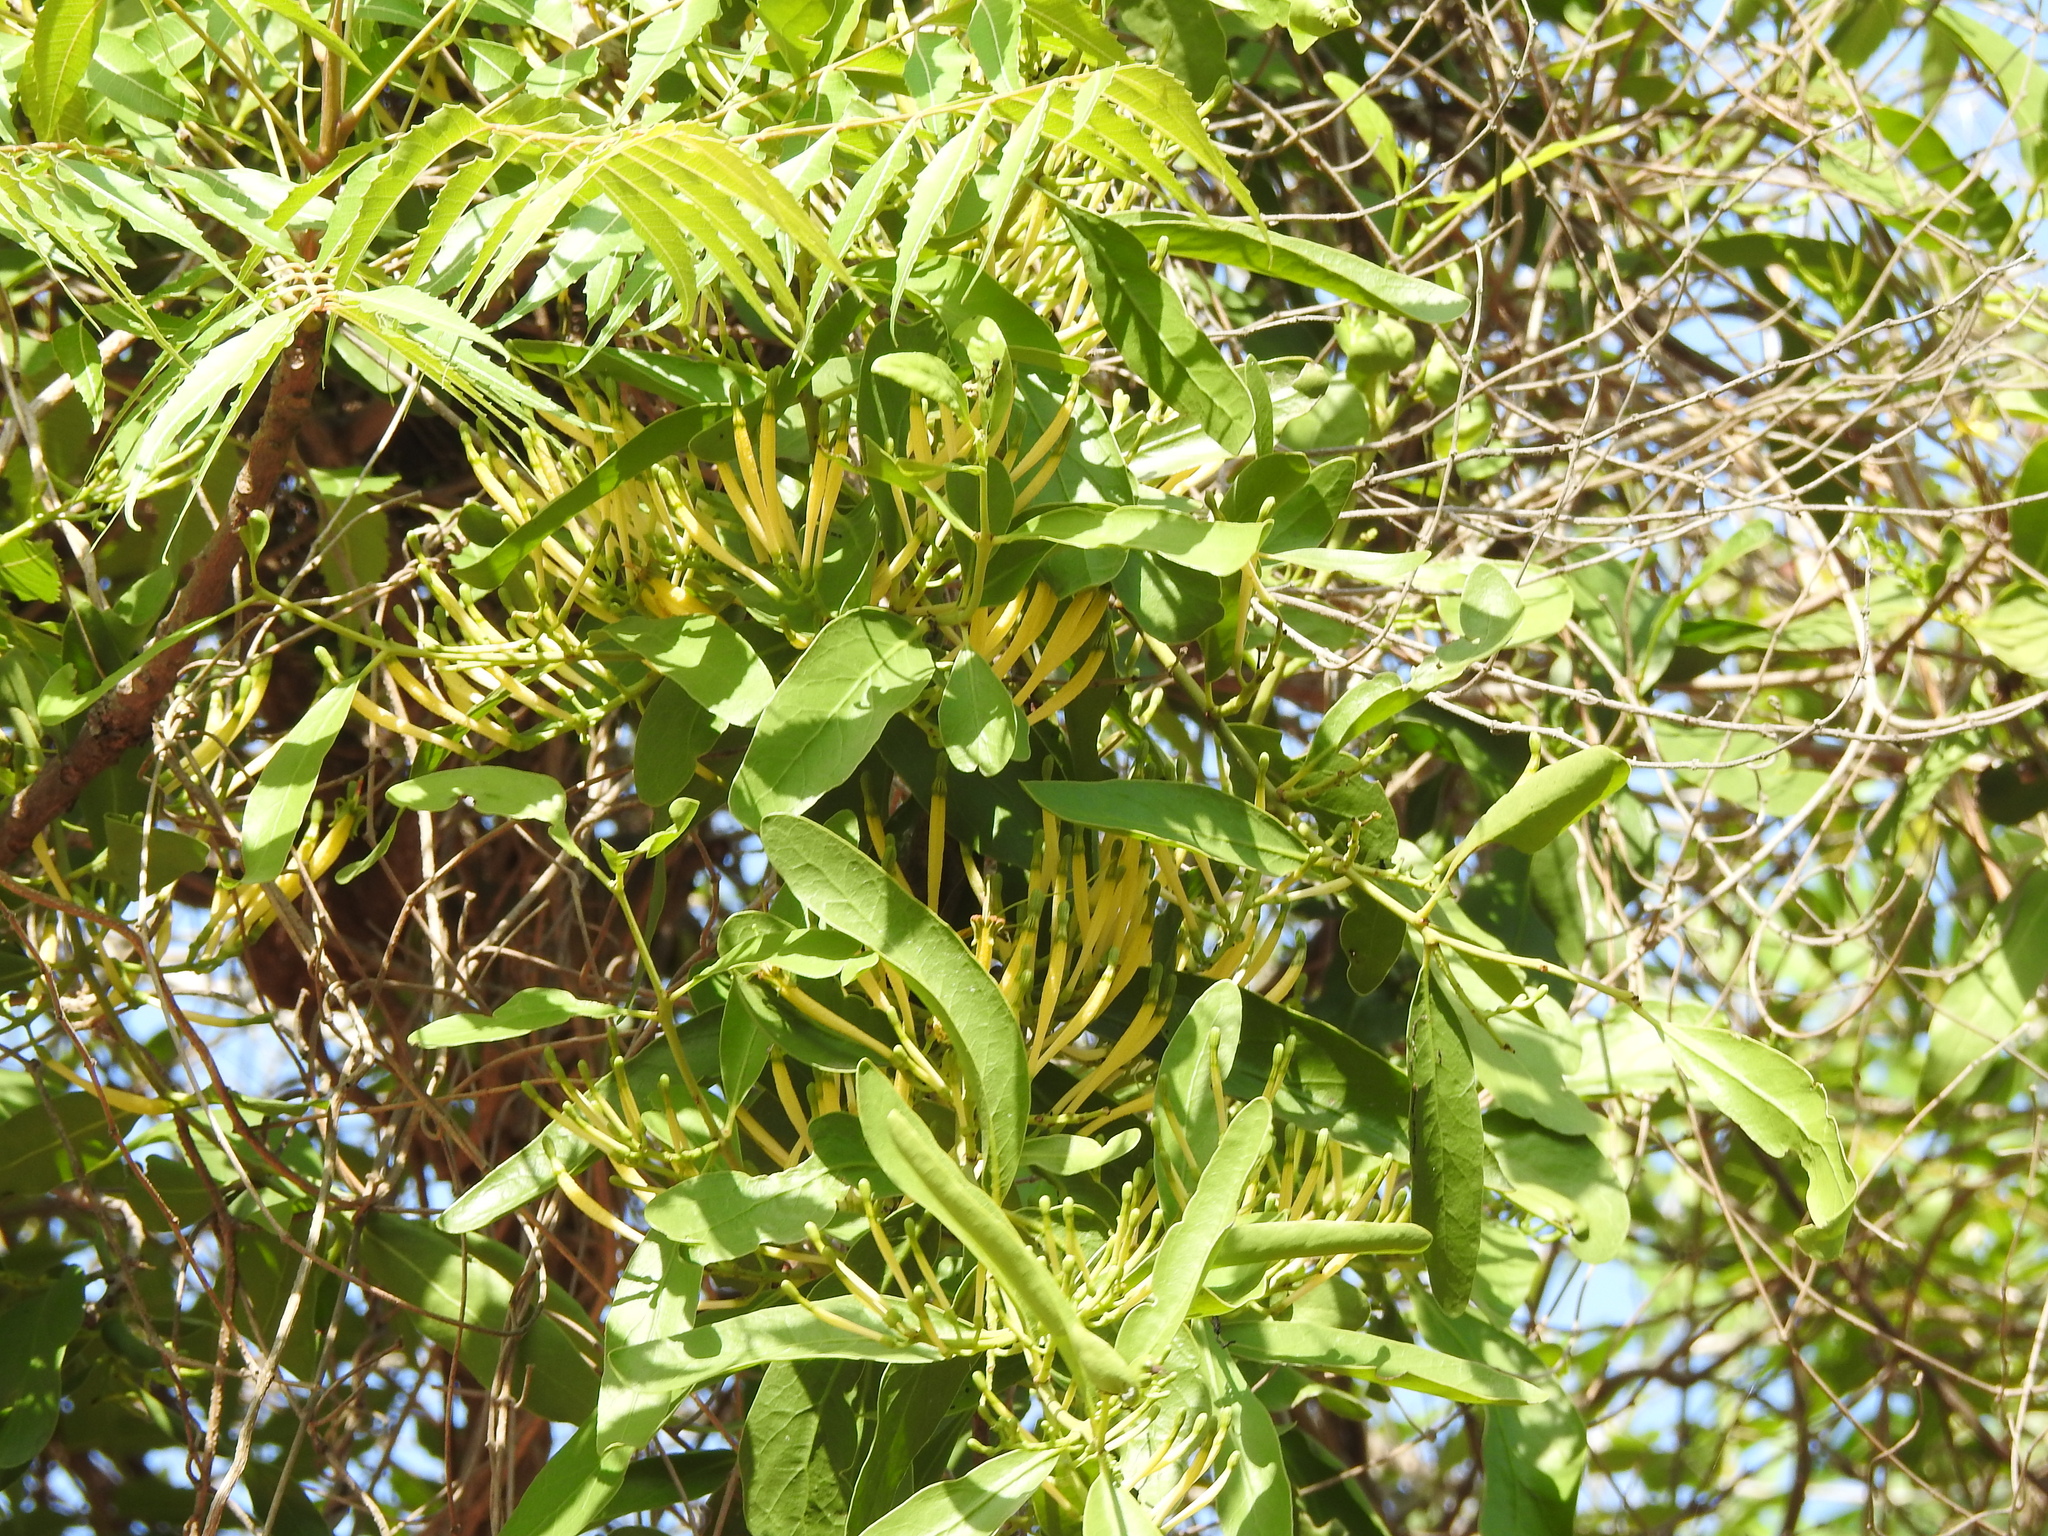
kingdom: Plantae
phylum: Tracheophyta
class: Magnoliopsida
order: Sapindales
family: Meliaceae
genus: Azadirachta
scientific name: Azadirachta indica
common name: Neem
